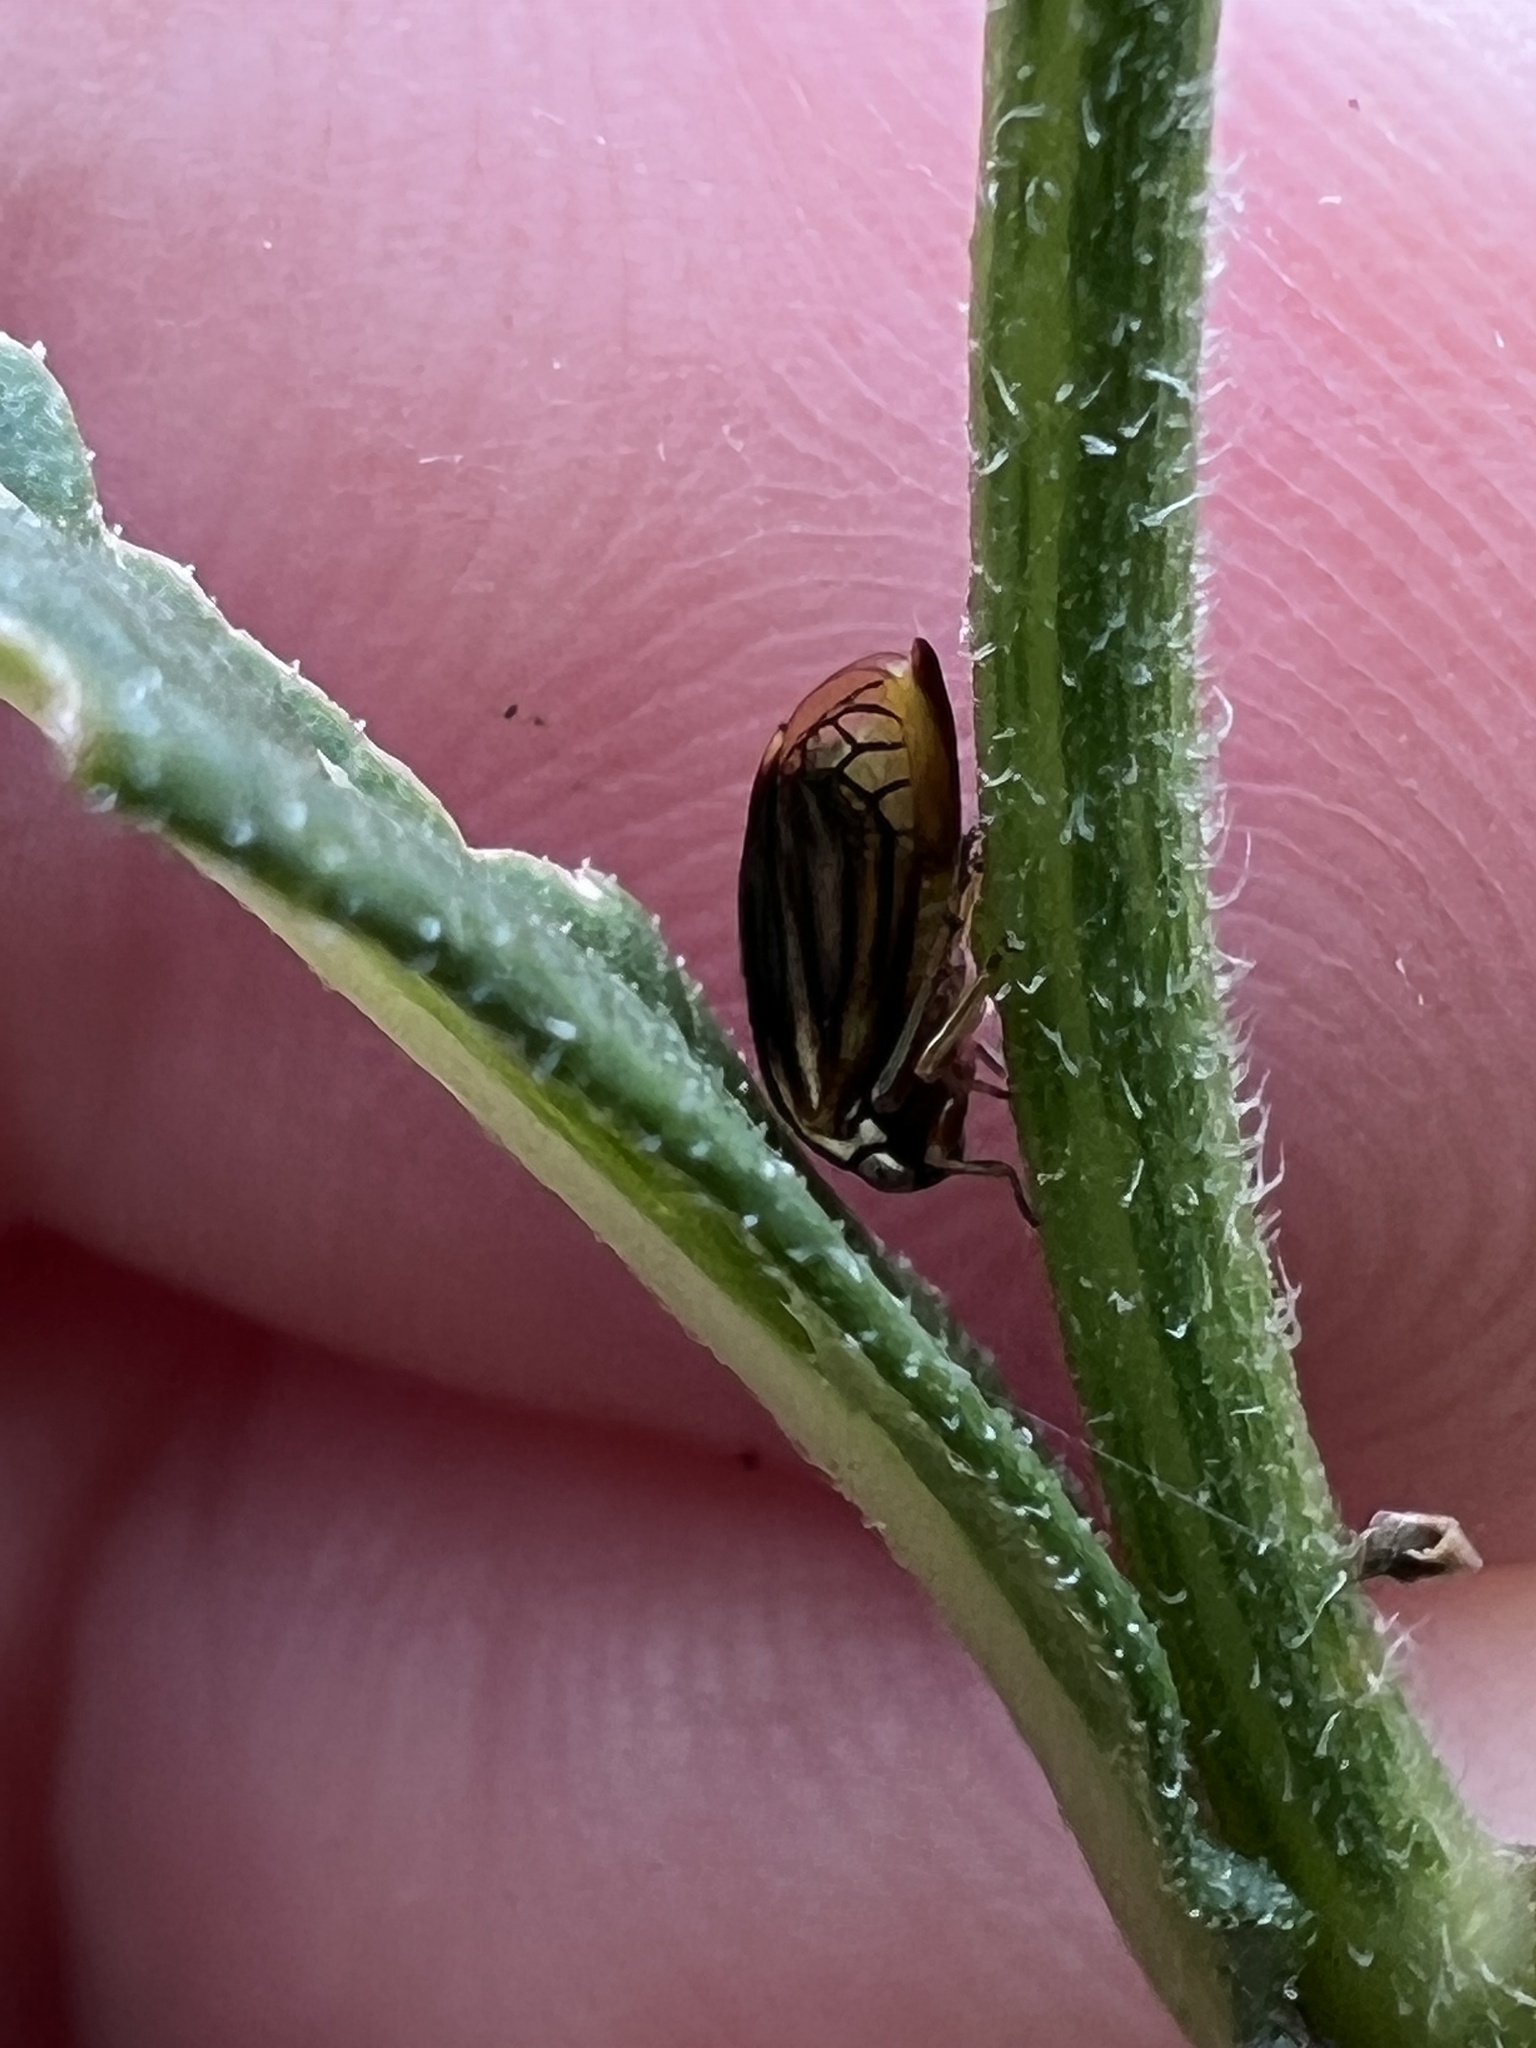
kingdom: Animalia
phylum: Arthropoda
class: Insecta
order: Hemiptera
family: Membracidae
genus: Acutalis
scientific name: Acutalis tartarea
